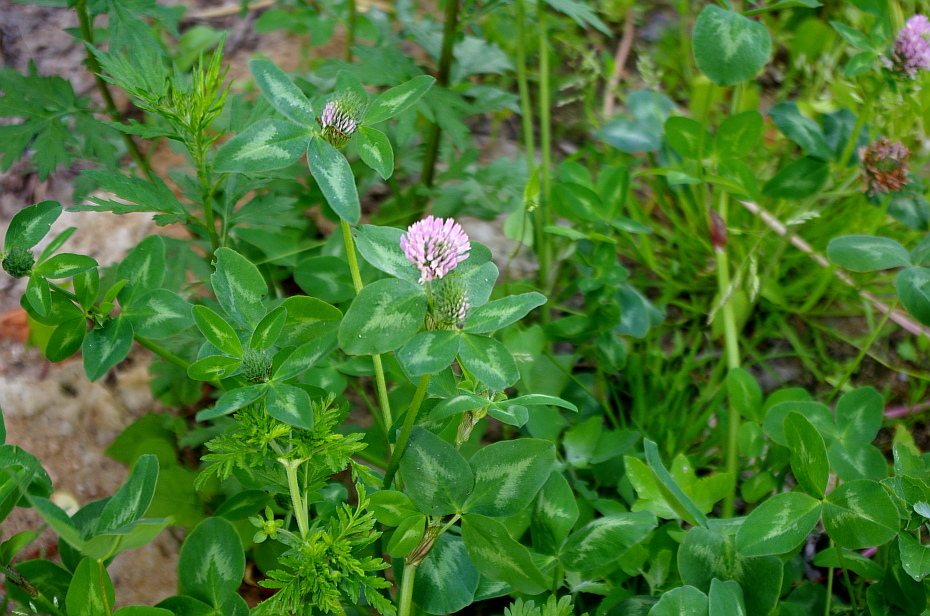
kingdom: Plantae
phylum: Tracheophyta
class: Magnoliopsida
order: Fabales
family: Fabaceae
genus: Trifolium
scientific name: Trifolium pratense
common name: Red clover
